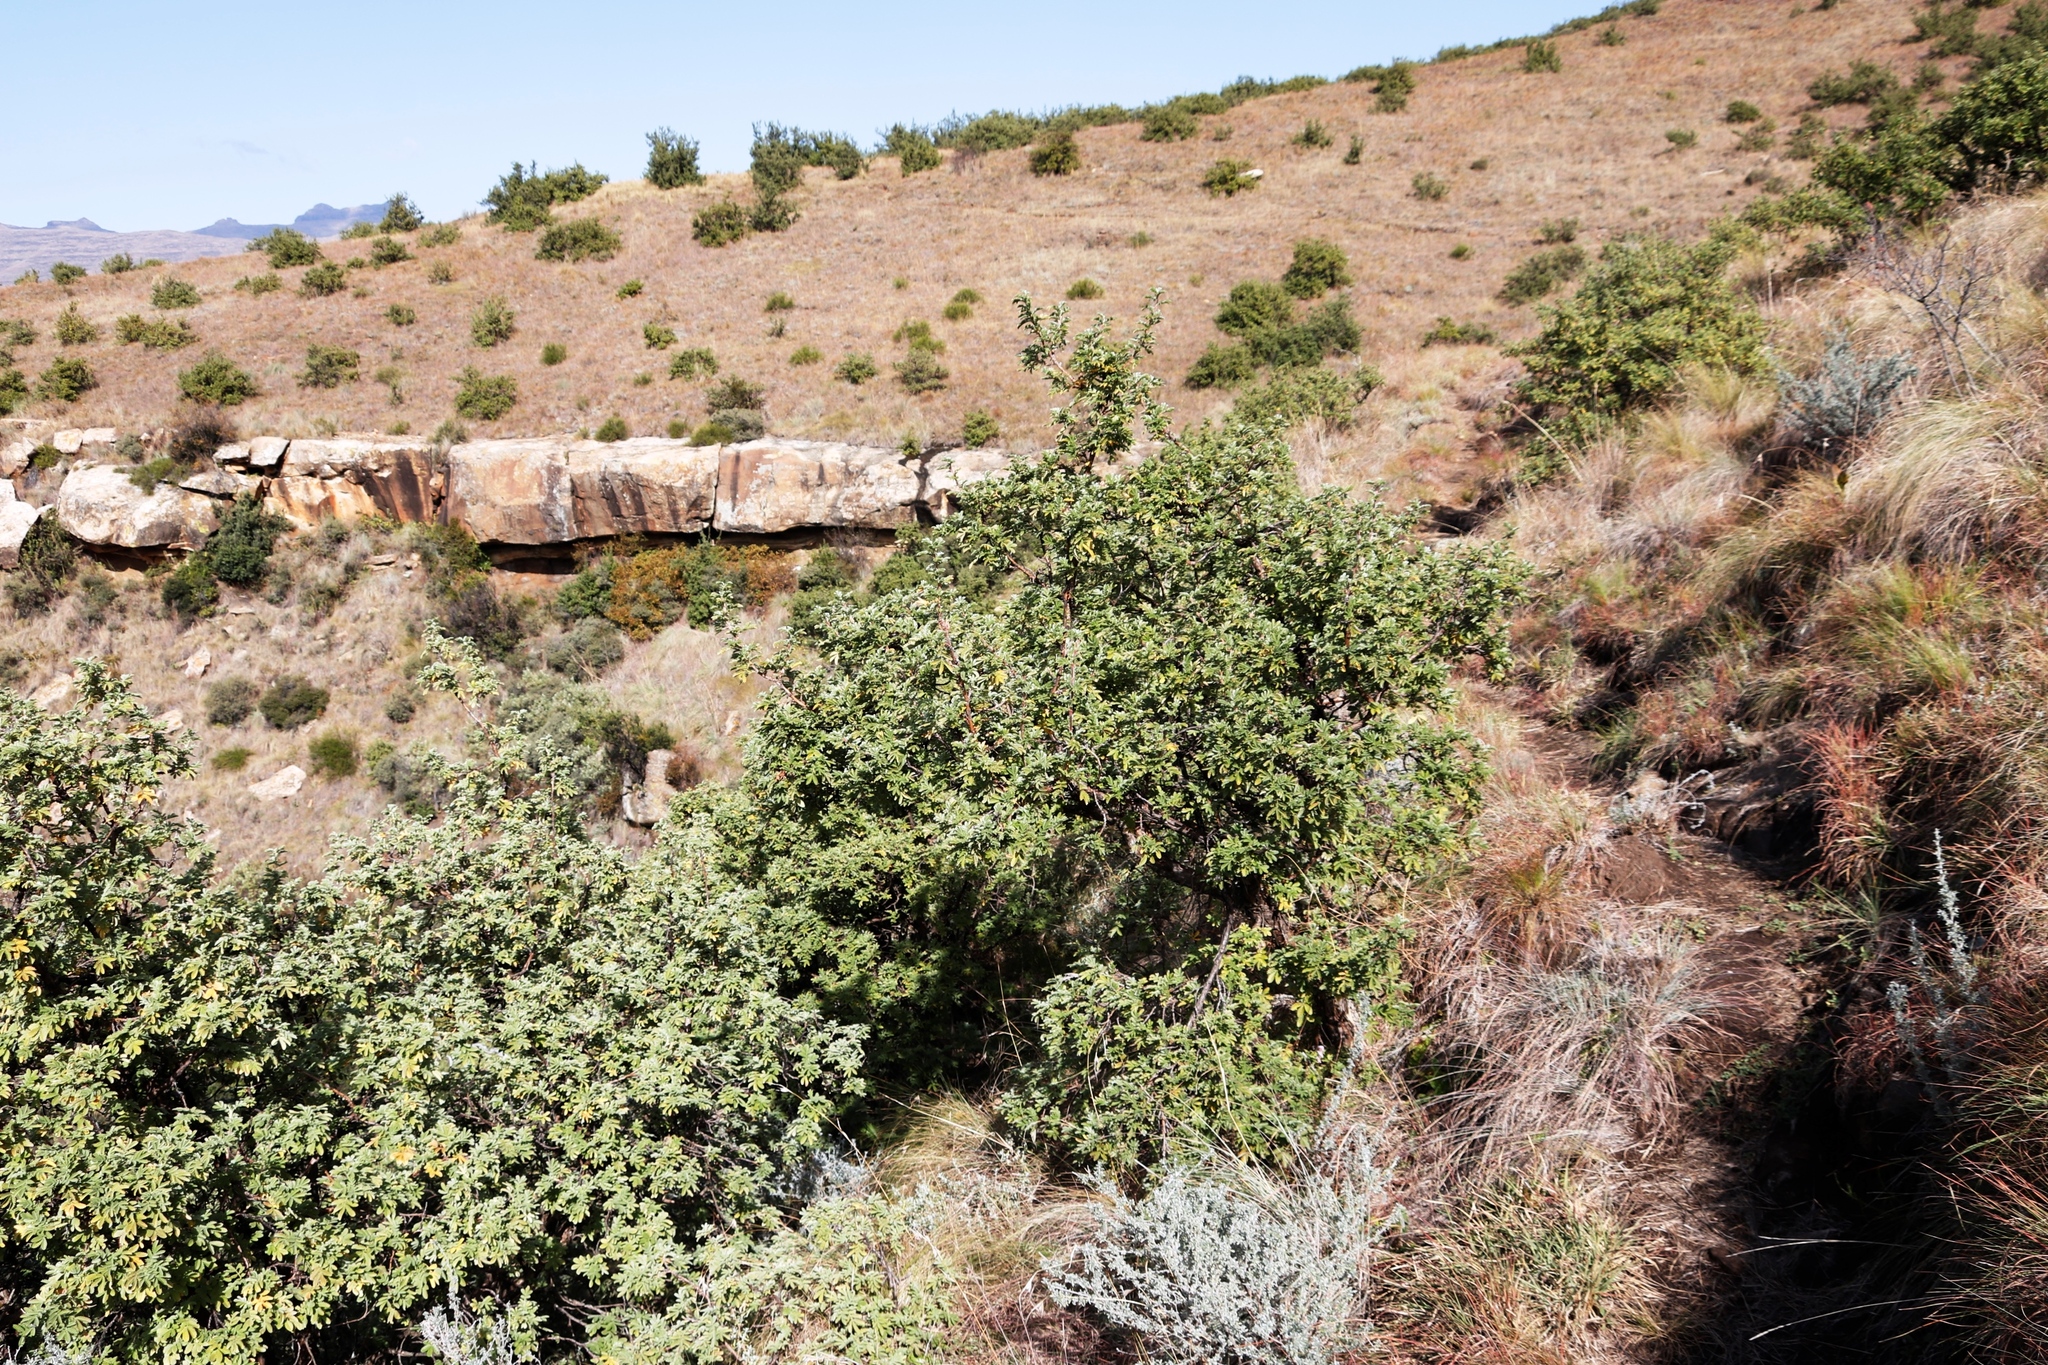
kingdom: Plantae
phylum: Tracheophyta
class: Magnoliopsida
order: Rosales
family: Rosaceae
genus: Leucosidea
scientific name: Leucosidea sericea
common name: Oldwood
